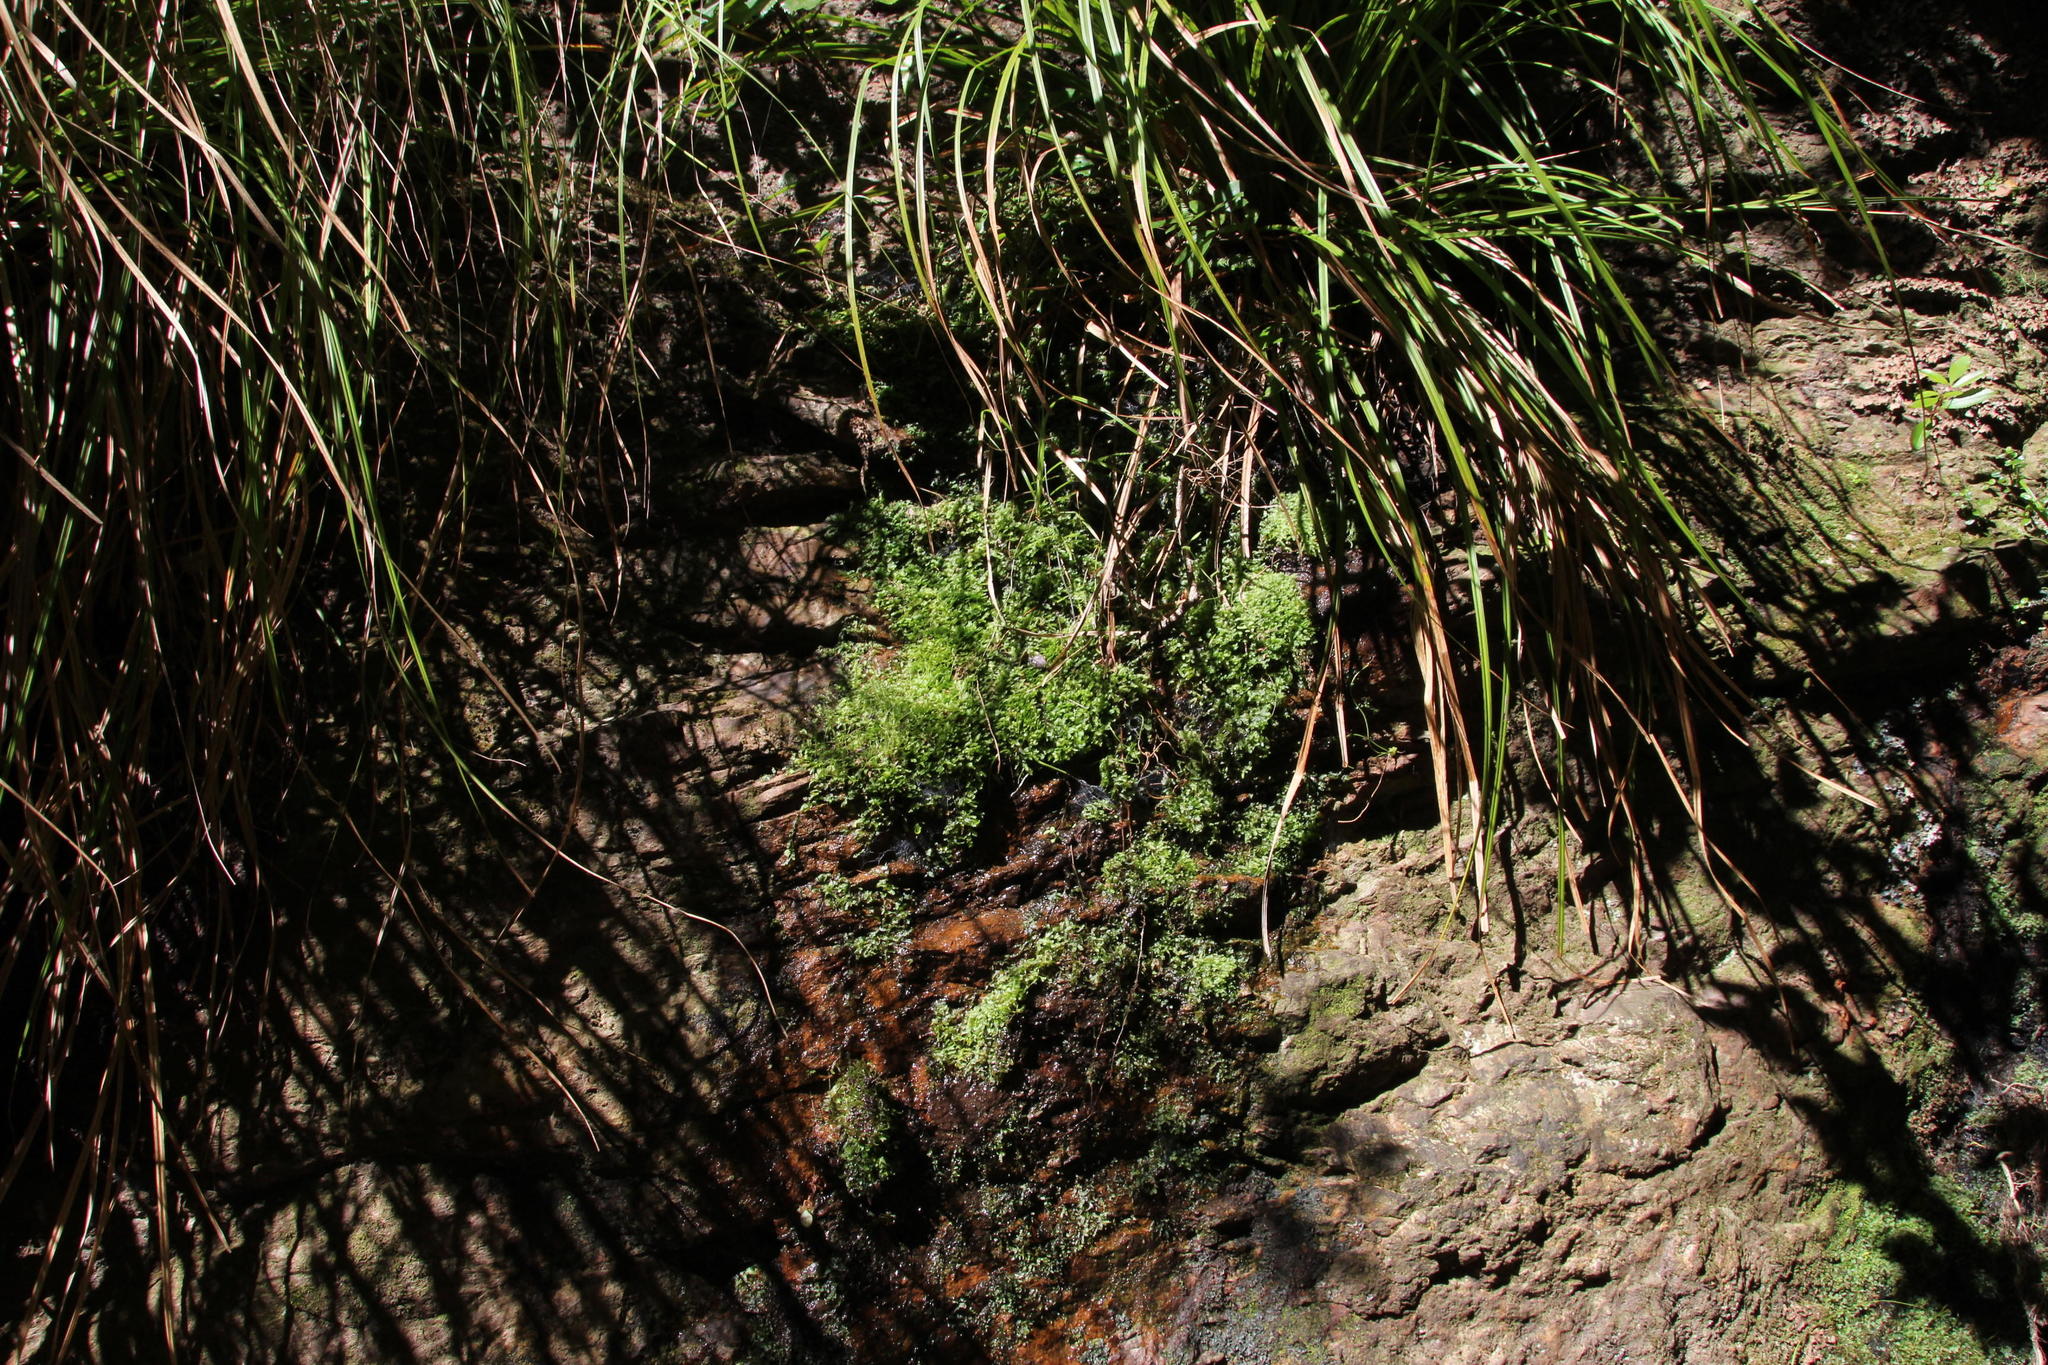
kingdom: Plantae
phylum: Marchantiophyta
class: Jungermanniopsida
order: Pallaviciniales
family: Pallaviciniaceae
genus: Symphyogyna
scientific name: Symphyogyna podophylla
